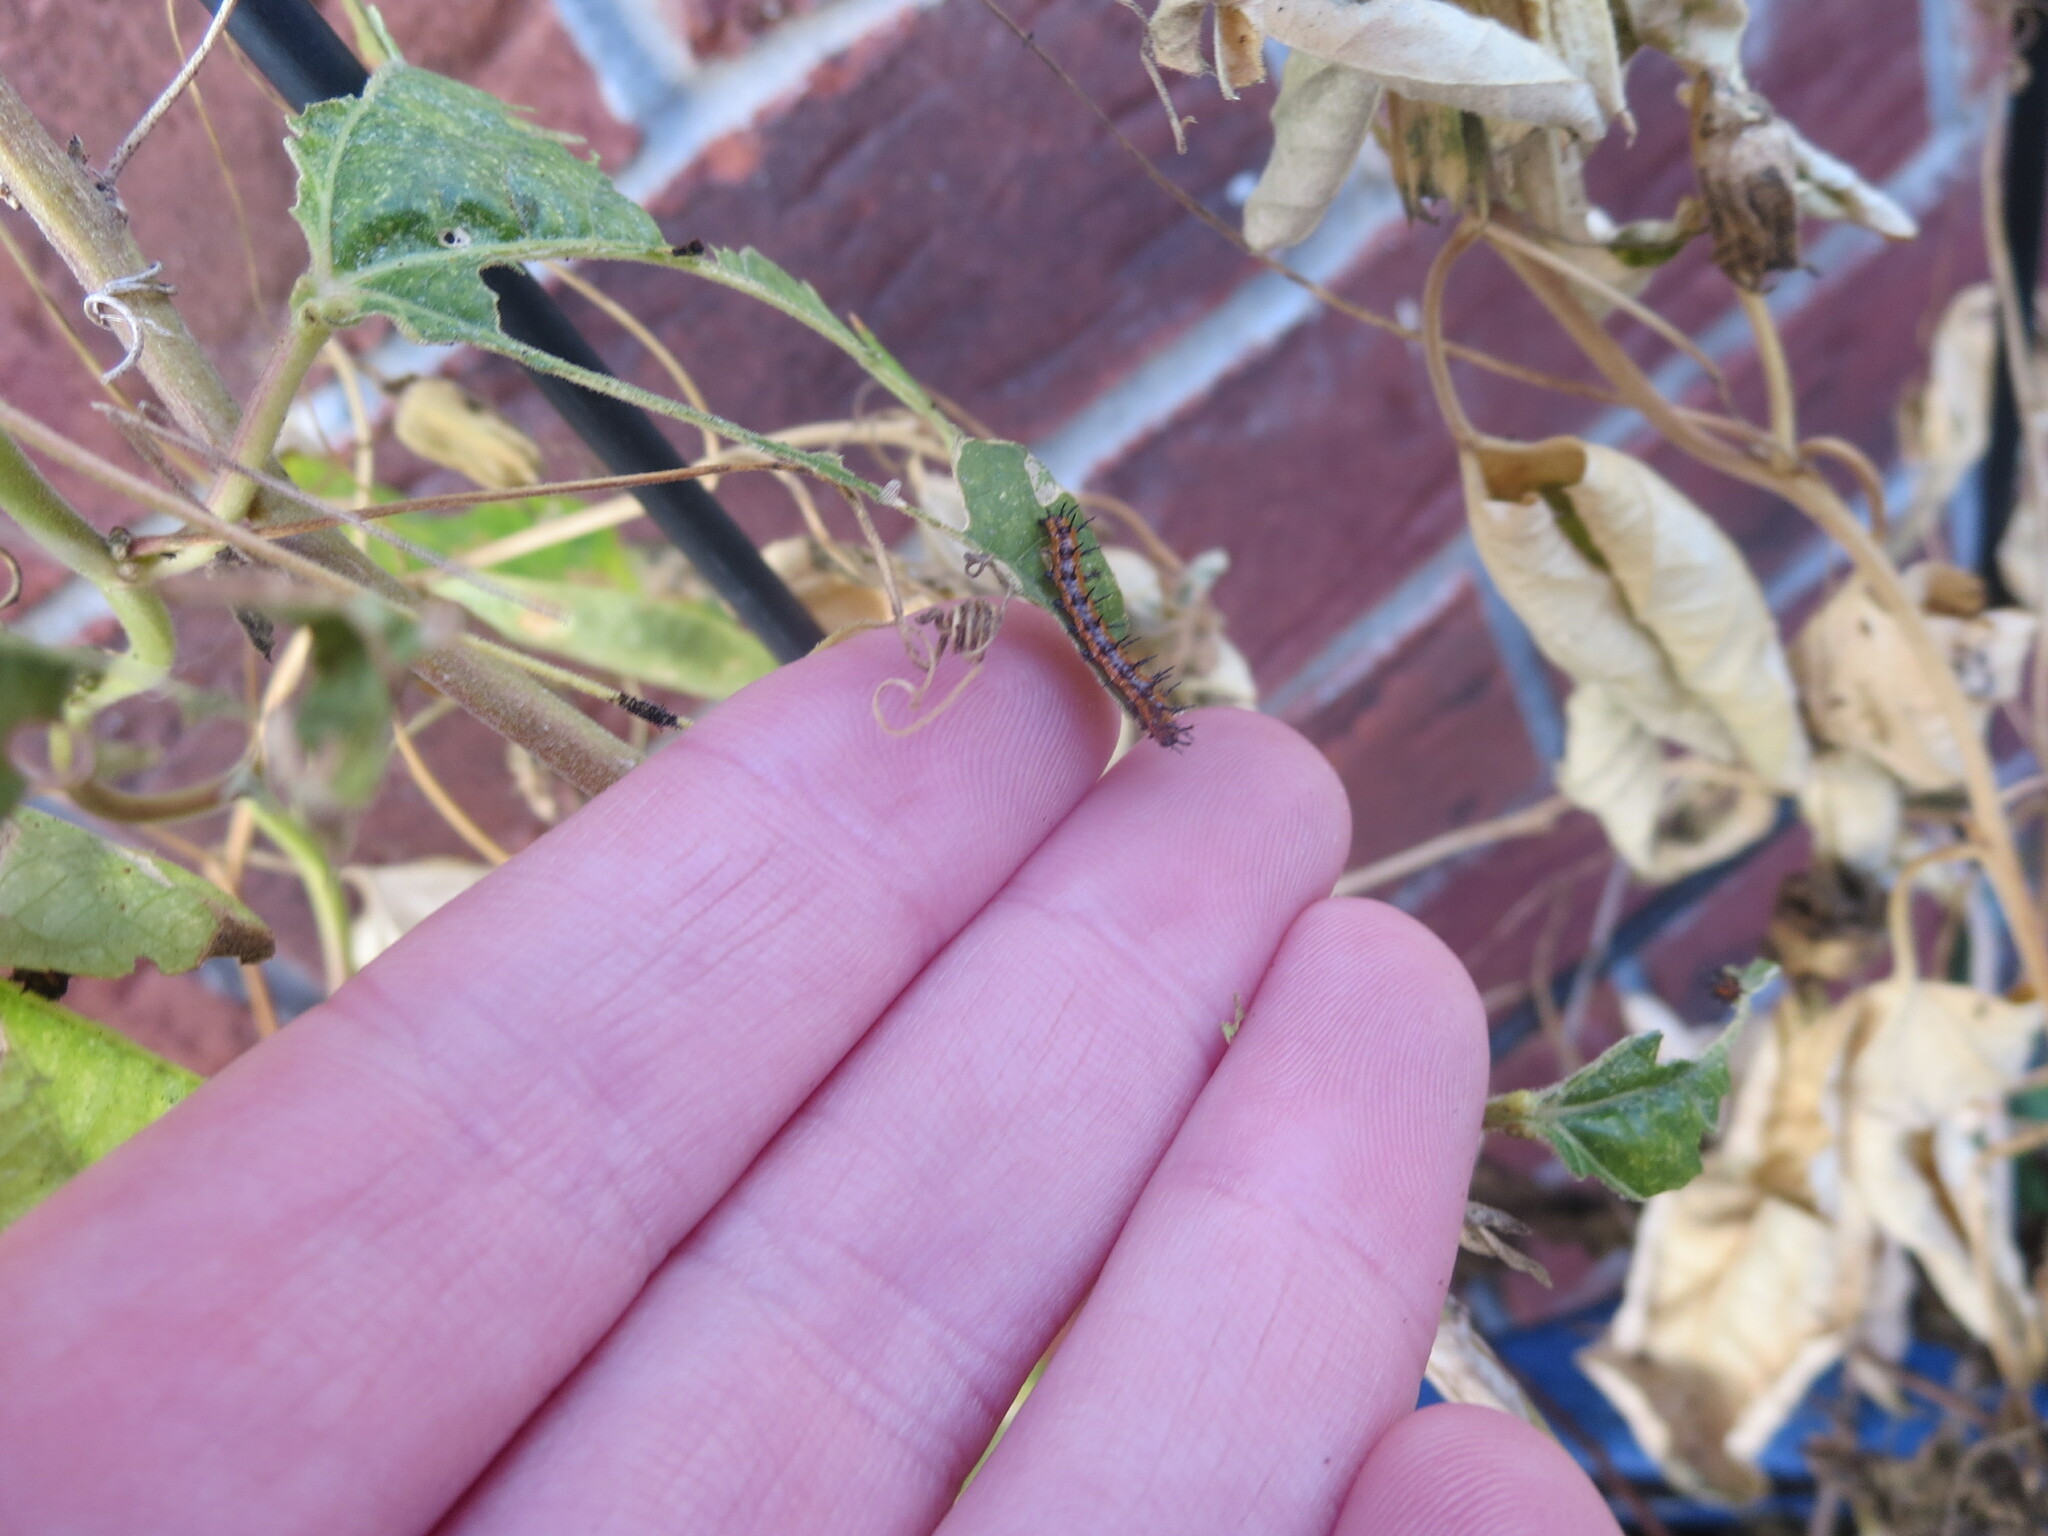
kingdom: Animalia
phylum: Arthropoda
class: Insecta
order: Lepidoptera
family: Nymphalidae
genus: Dione
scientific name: Dione vanillae
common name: Gulf fritillary
